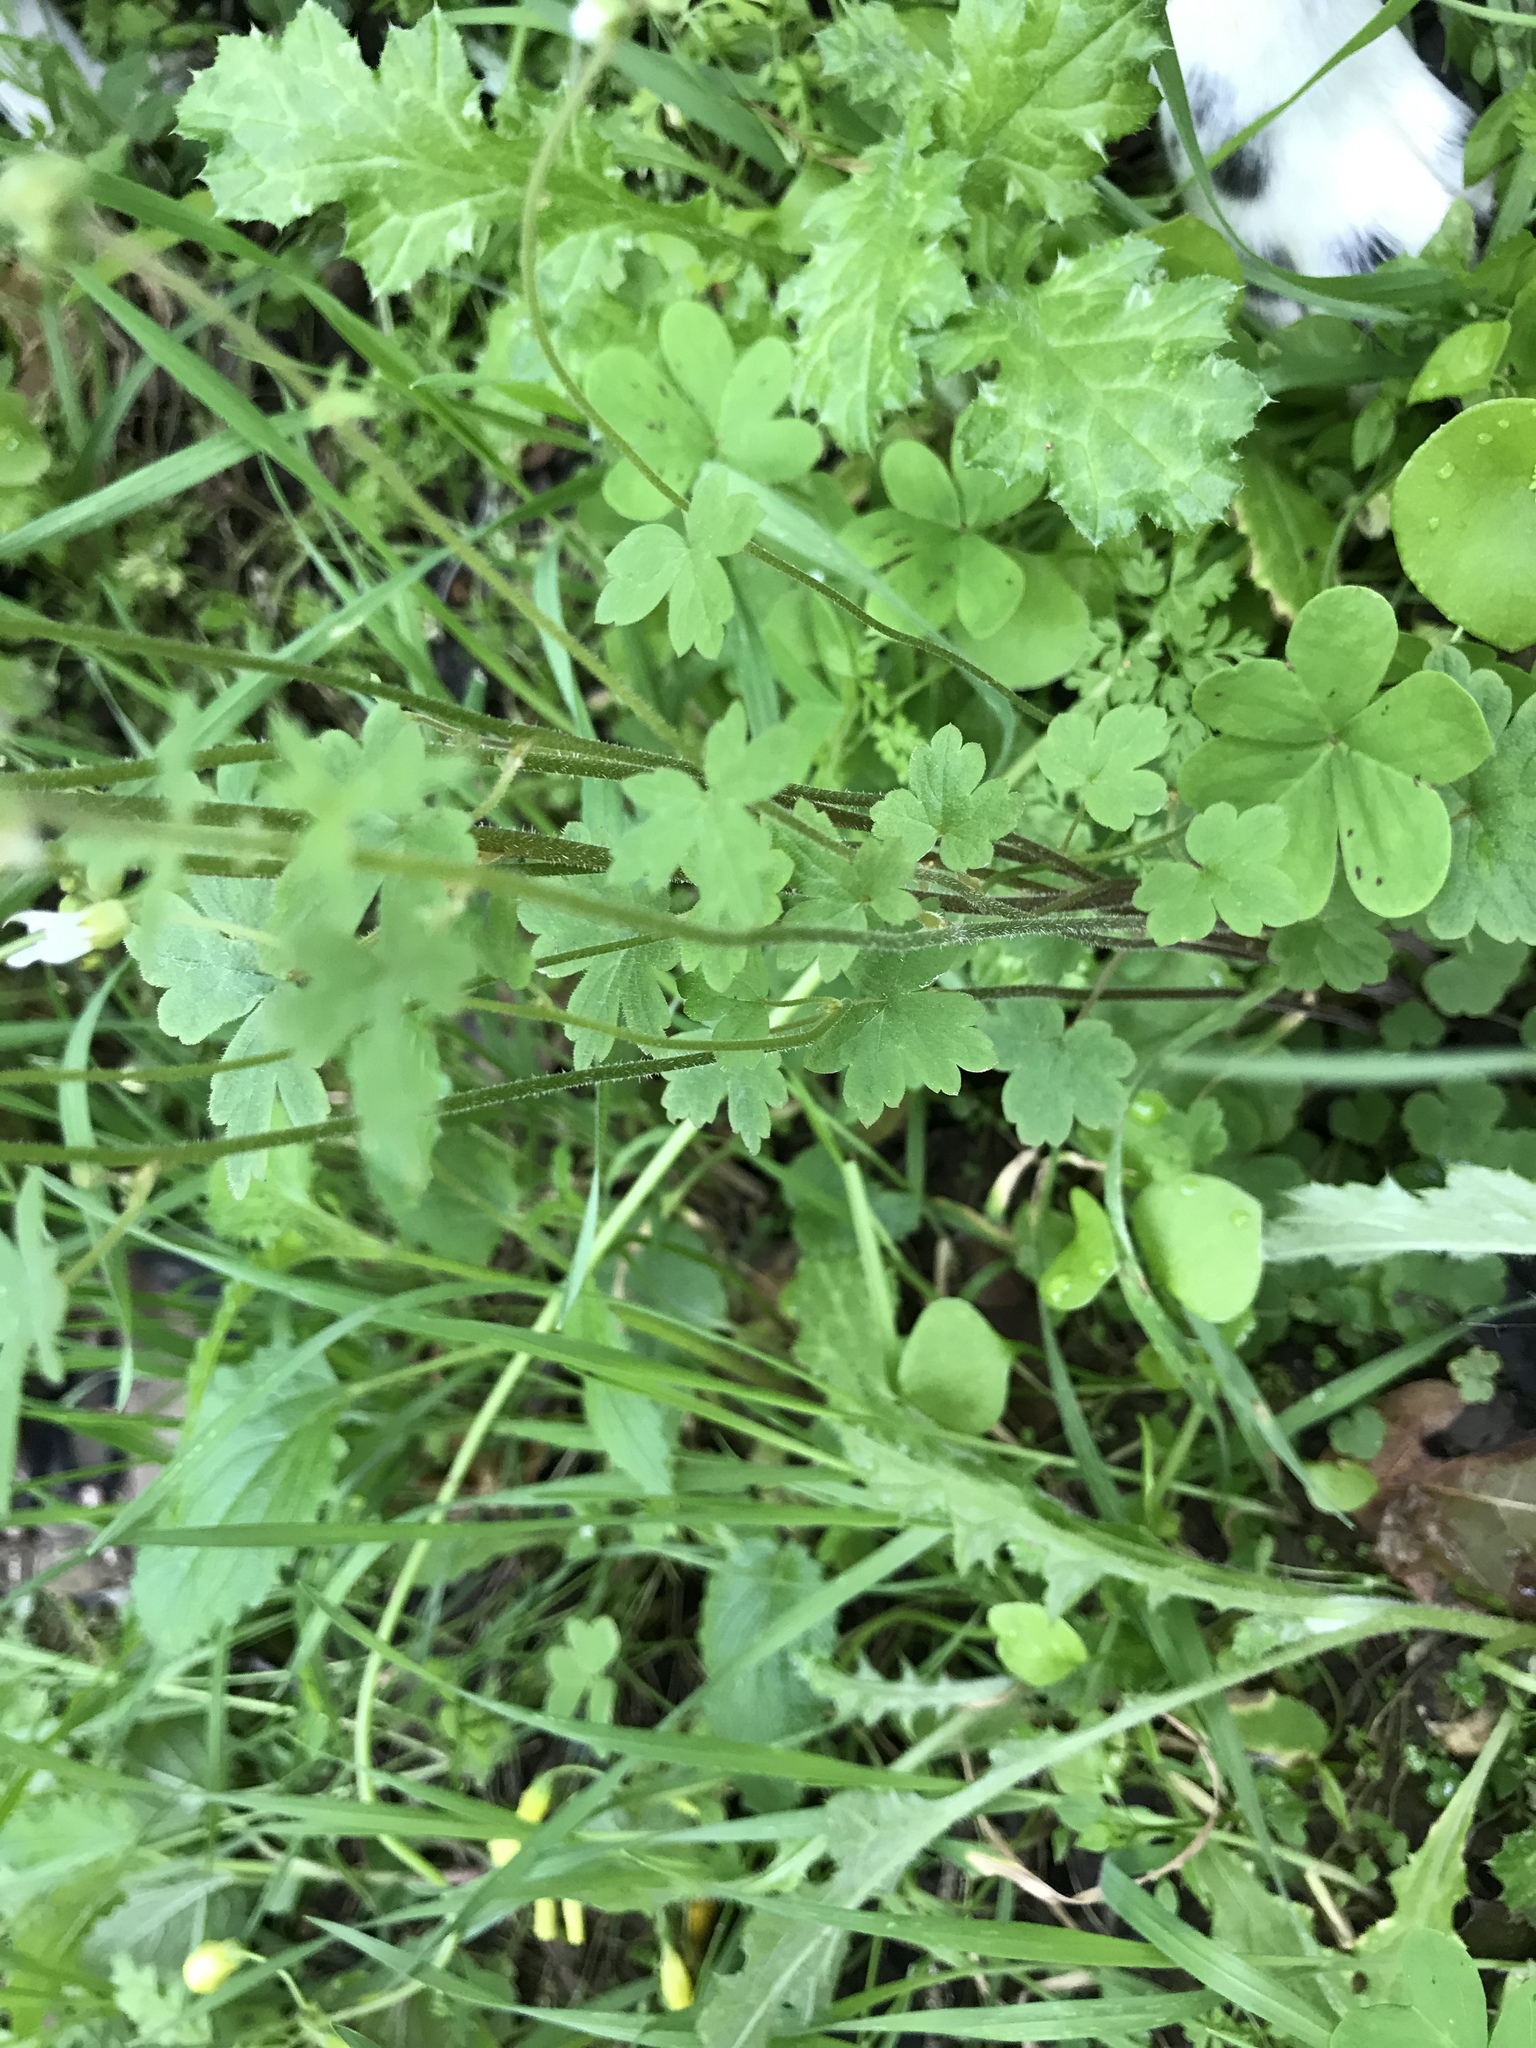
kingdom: Plantae
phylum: Tracheophyta
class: Magnoliopsida
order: Saxifragales
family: Saxifragaceae
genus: Lithophragma
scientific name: Lithophragma heterophyllum
